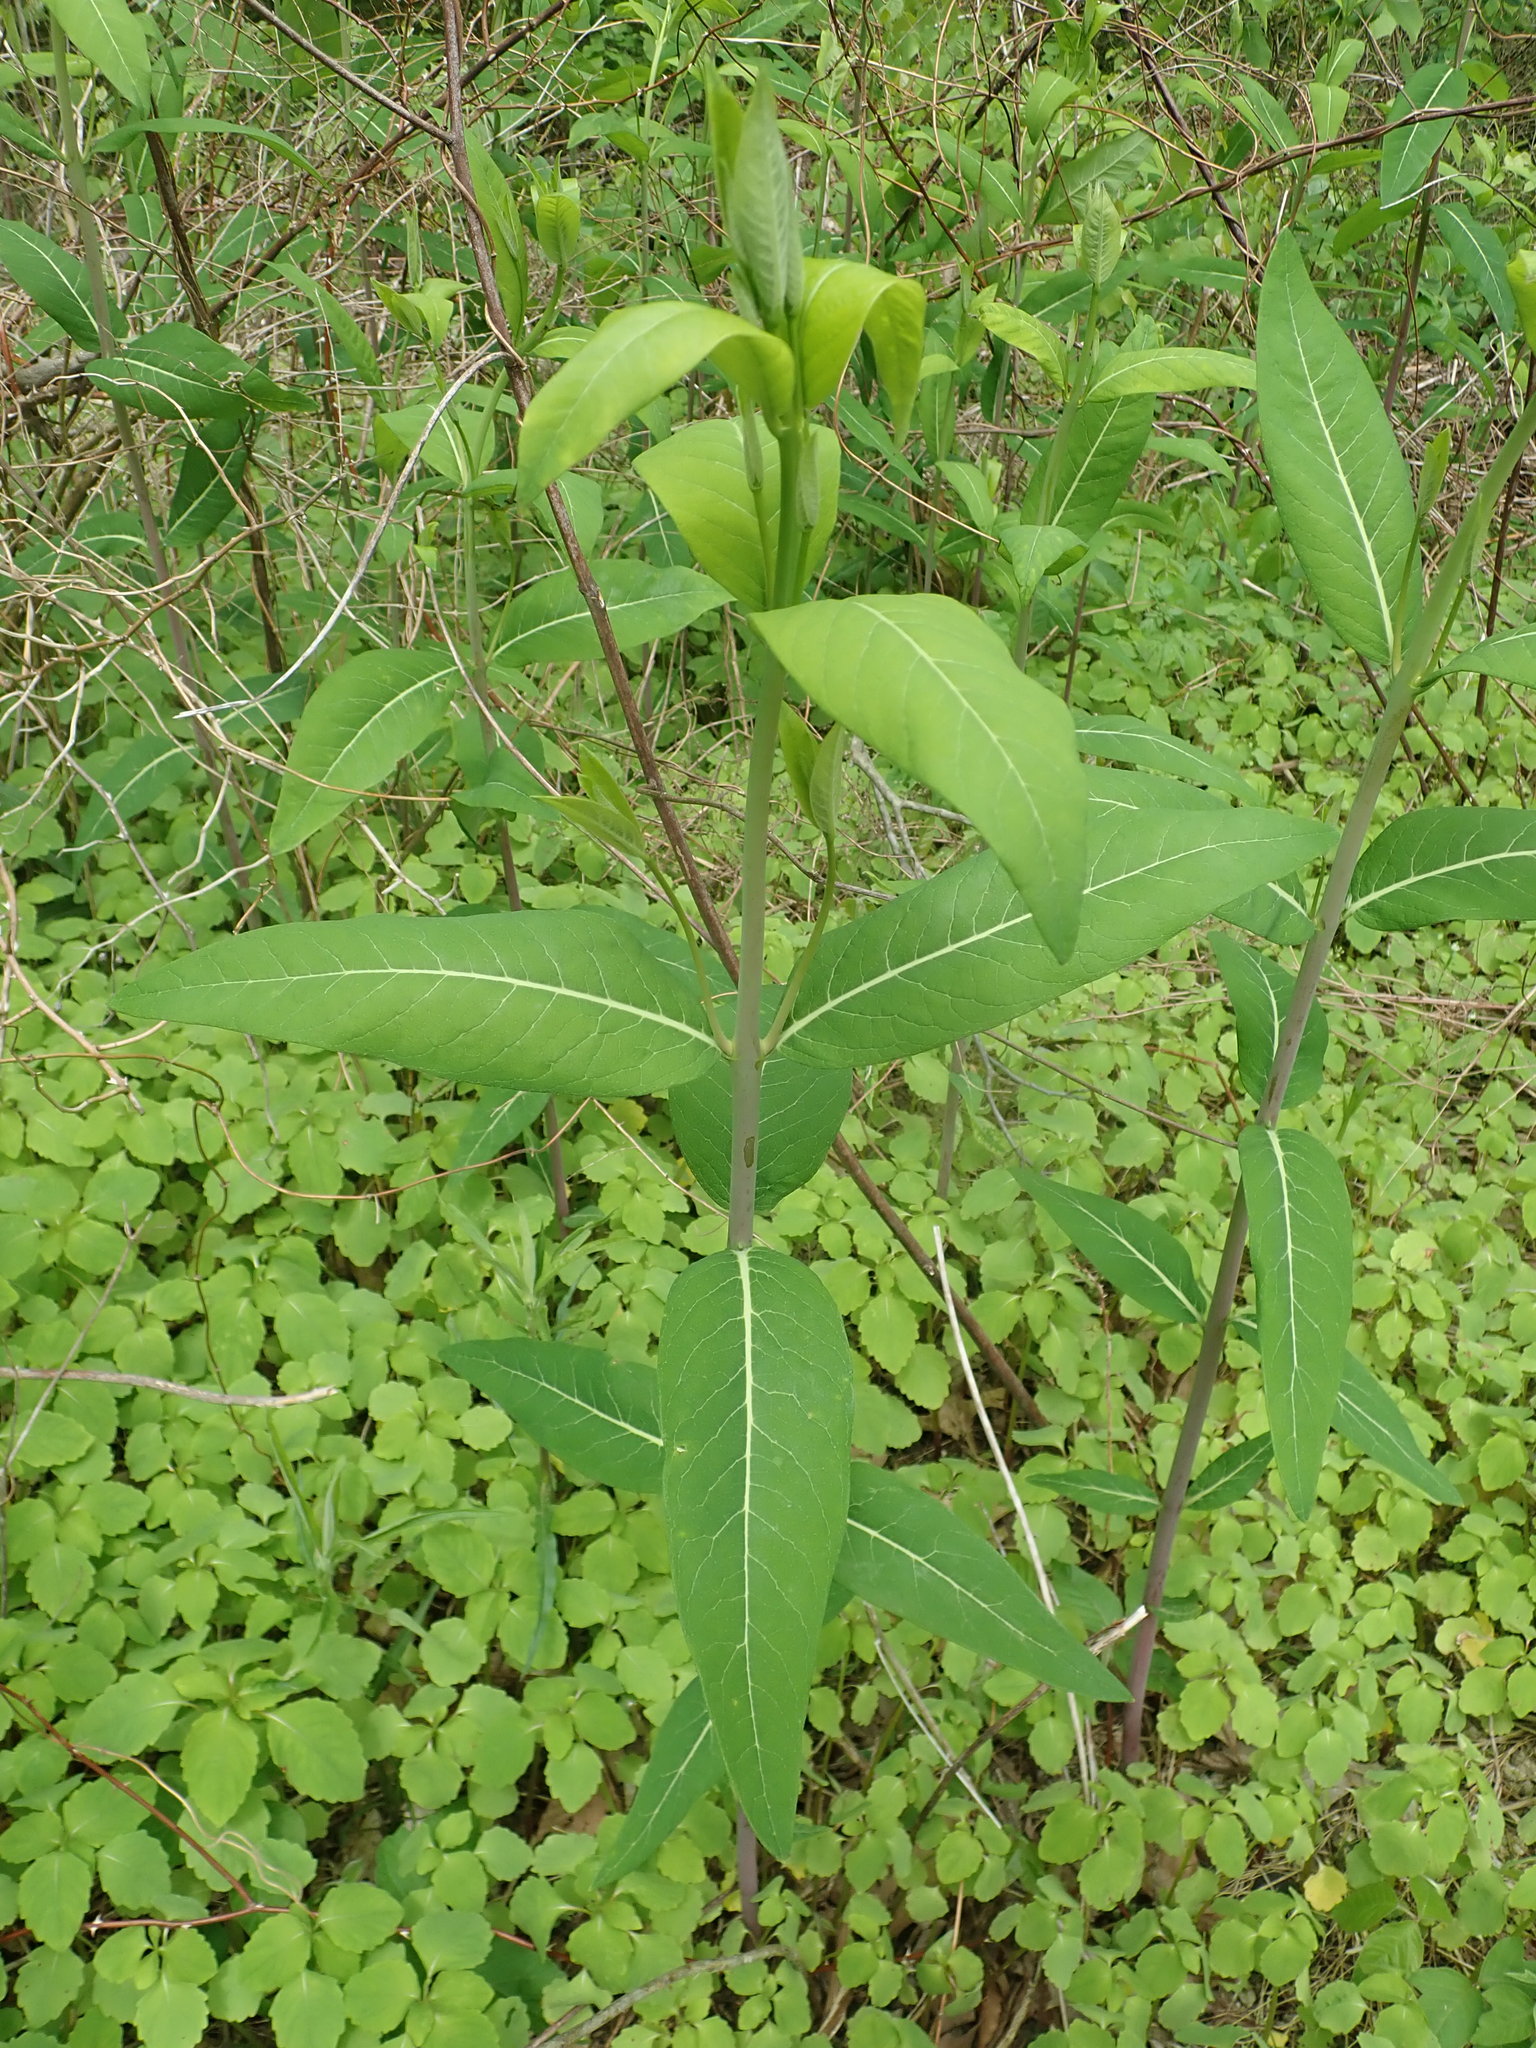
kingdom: Plantae
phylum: Tracheophyta
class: Magnoliopsida
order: Gentianales
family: Apocynaceae
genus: Apocynum
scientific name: Apocynum cannabinum
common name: Hemp dogbane
